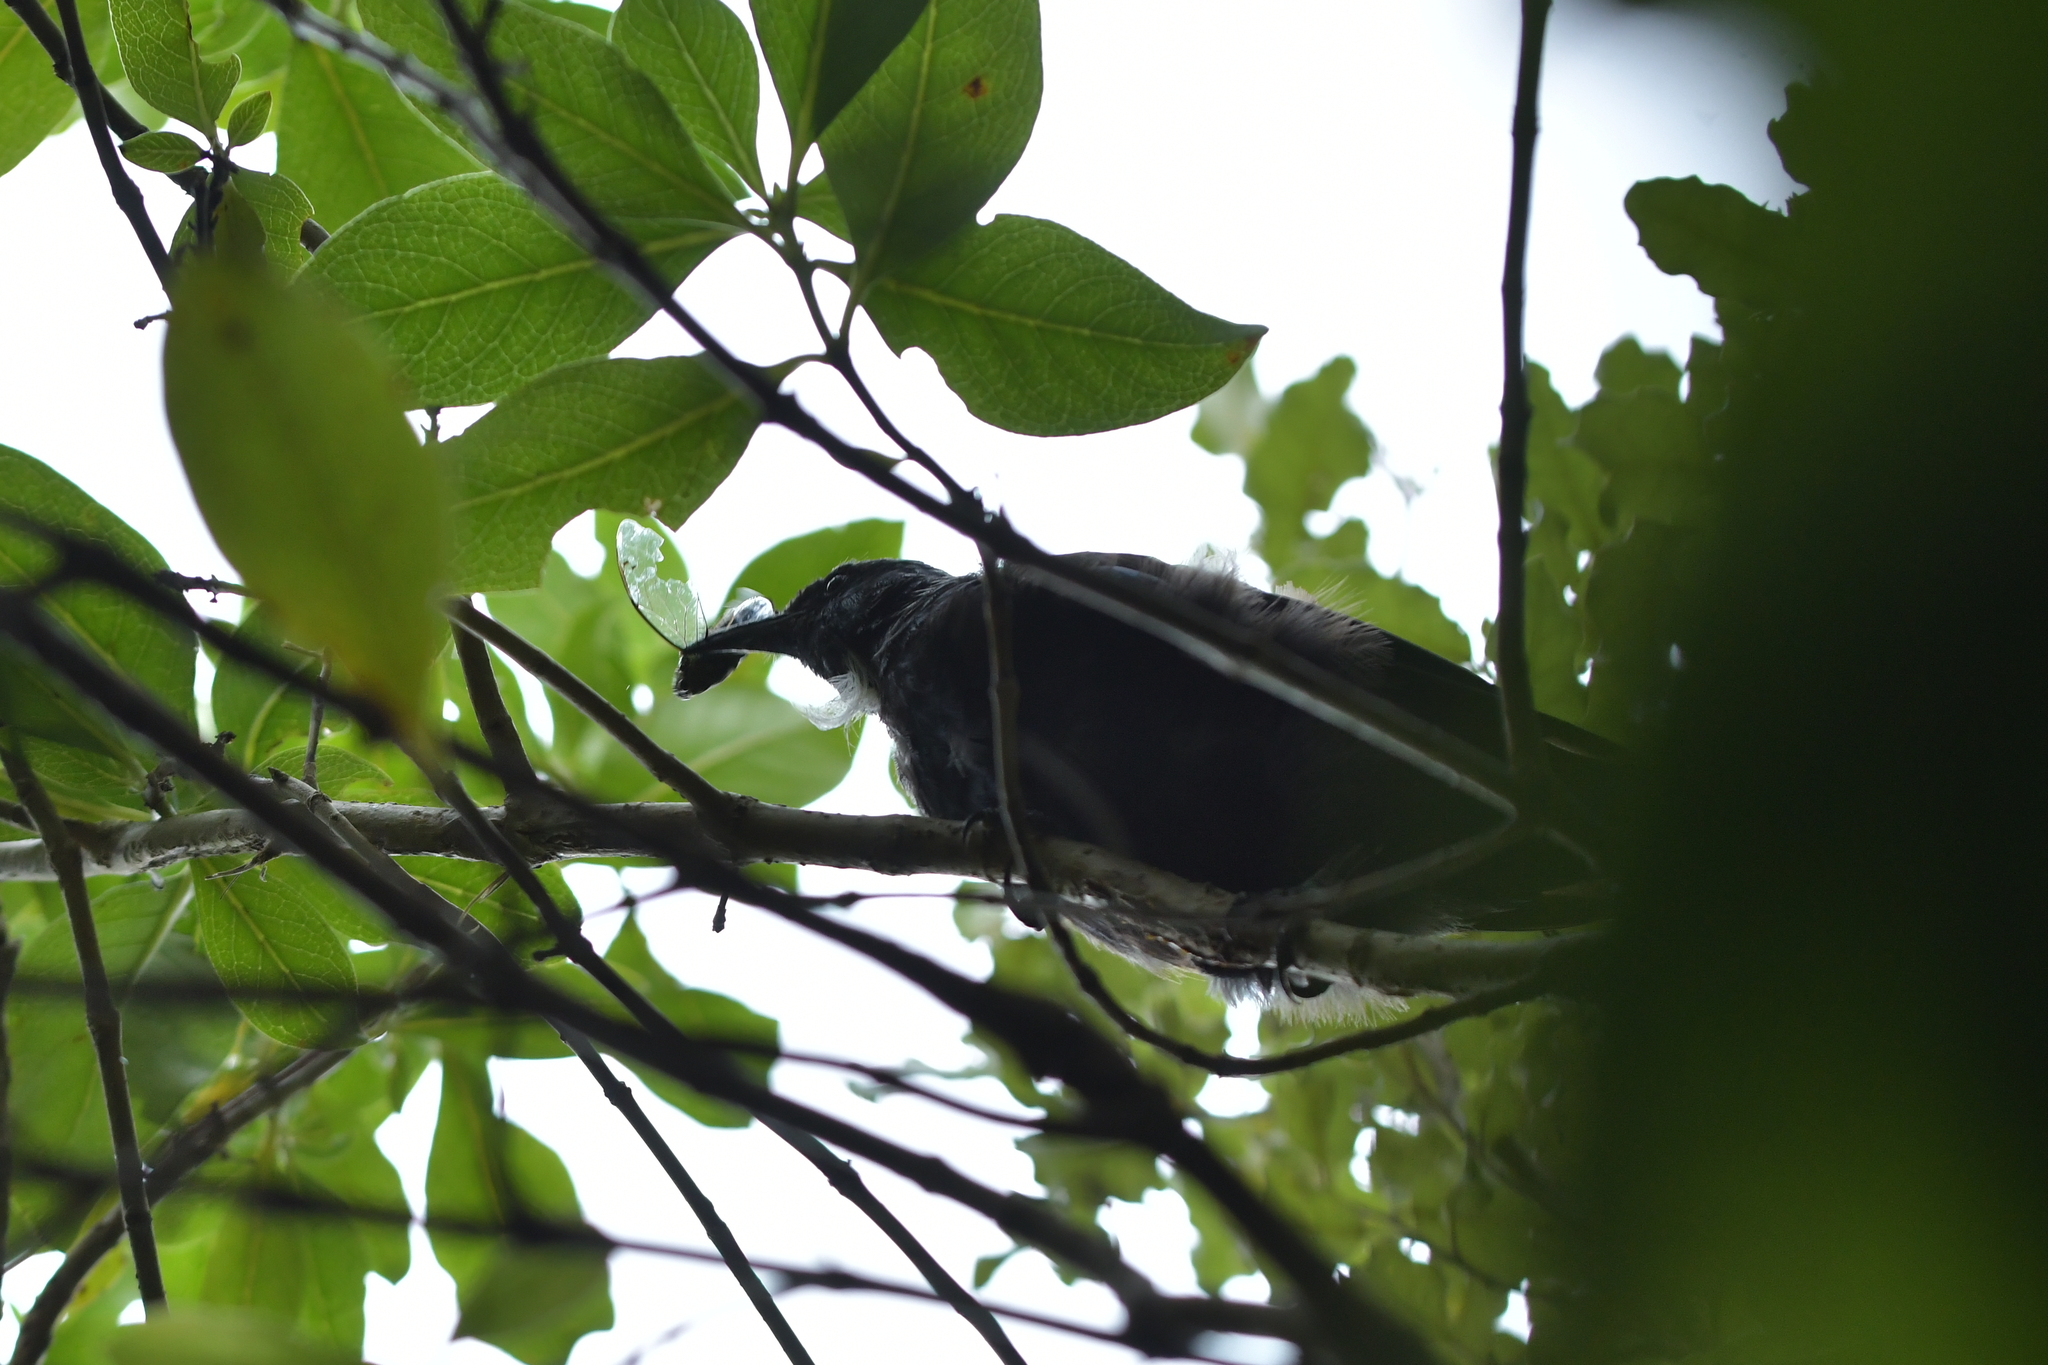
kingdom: Animalia
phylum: Chordata
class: Aves
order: Passeriformes
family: Meliphagidae
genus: Prosthemadera
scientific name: Prosthemadera novaeseelandiae
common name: Tui
